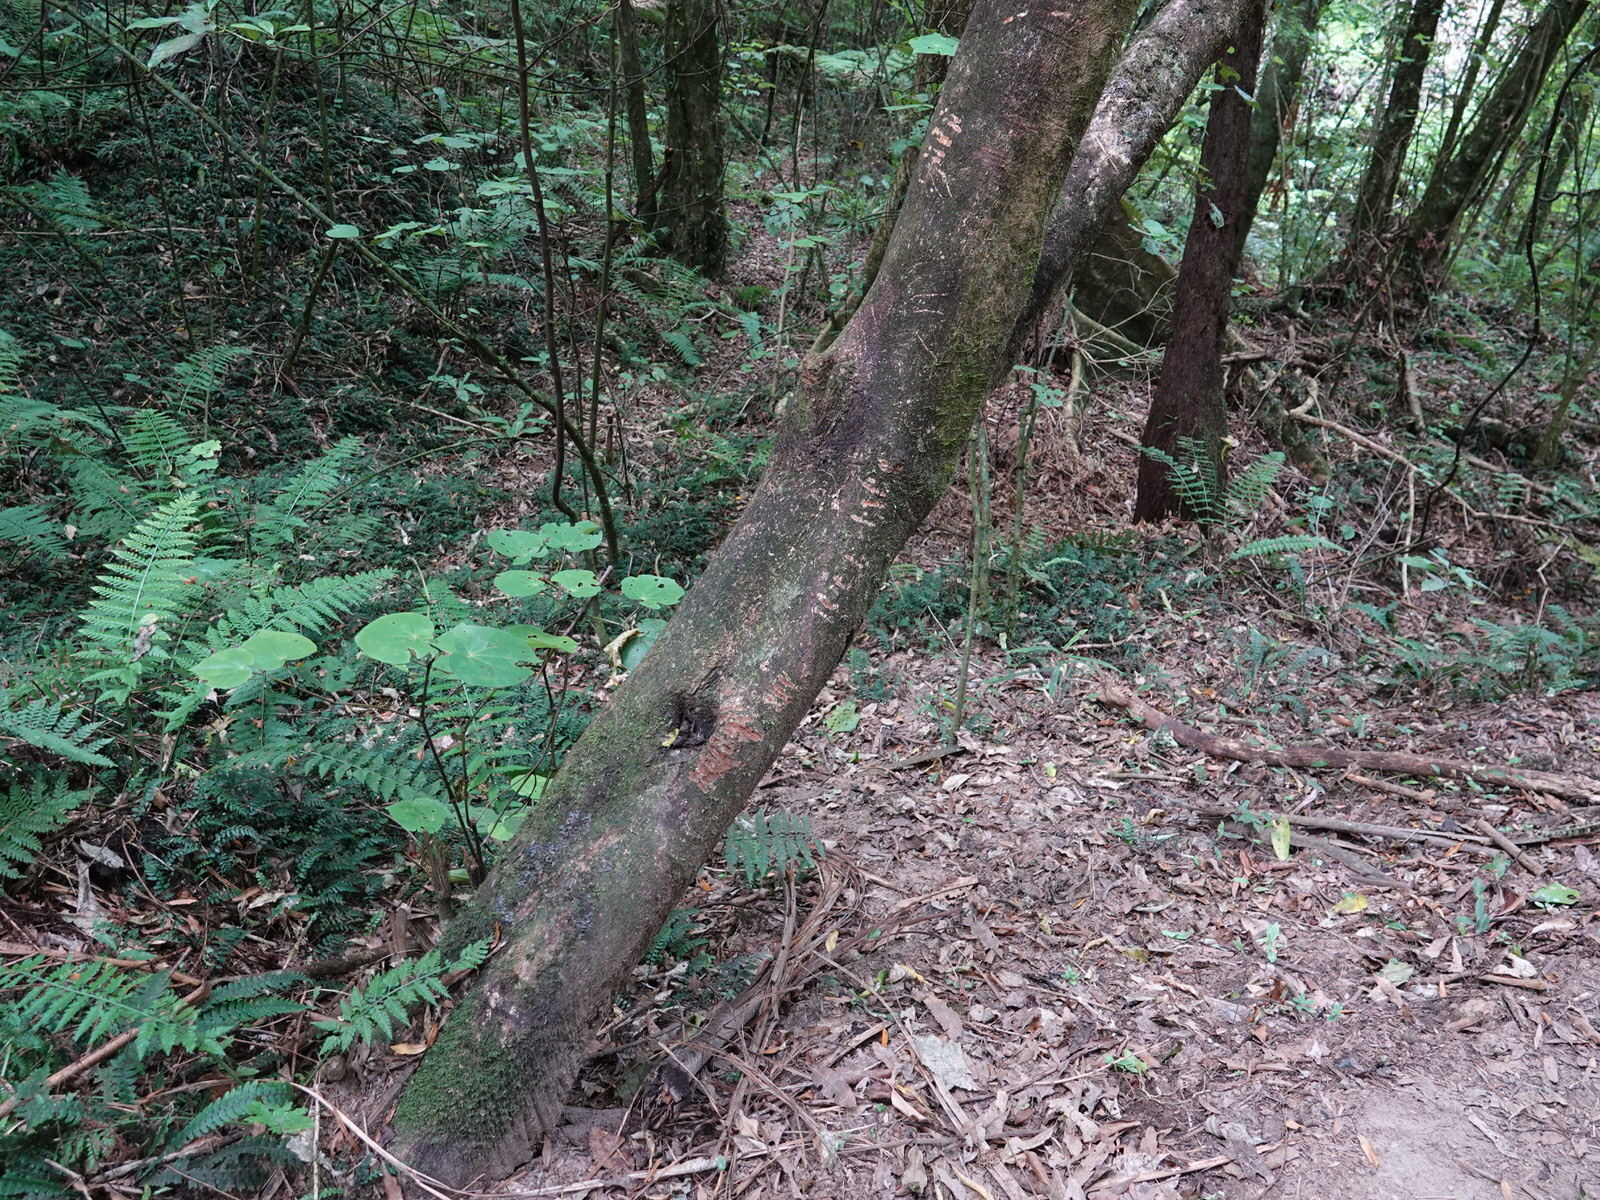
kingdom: Animalia
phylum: Chordata
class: Mammalia
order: Diprotodontia
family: Phalangeridae
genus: Trichosurus
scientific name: Trichosurus vulpecula
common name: Common brushtail
